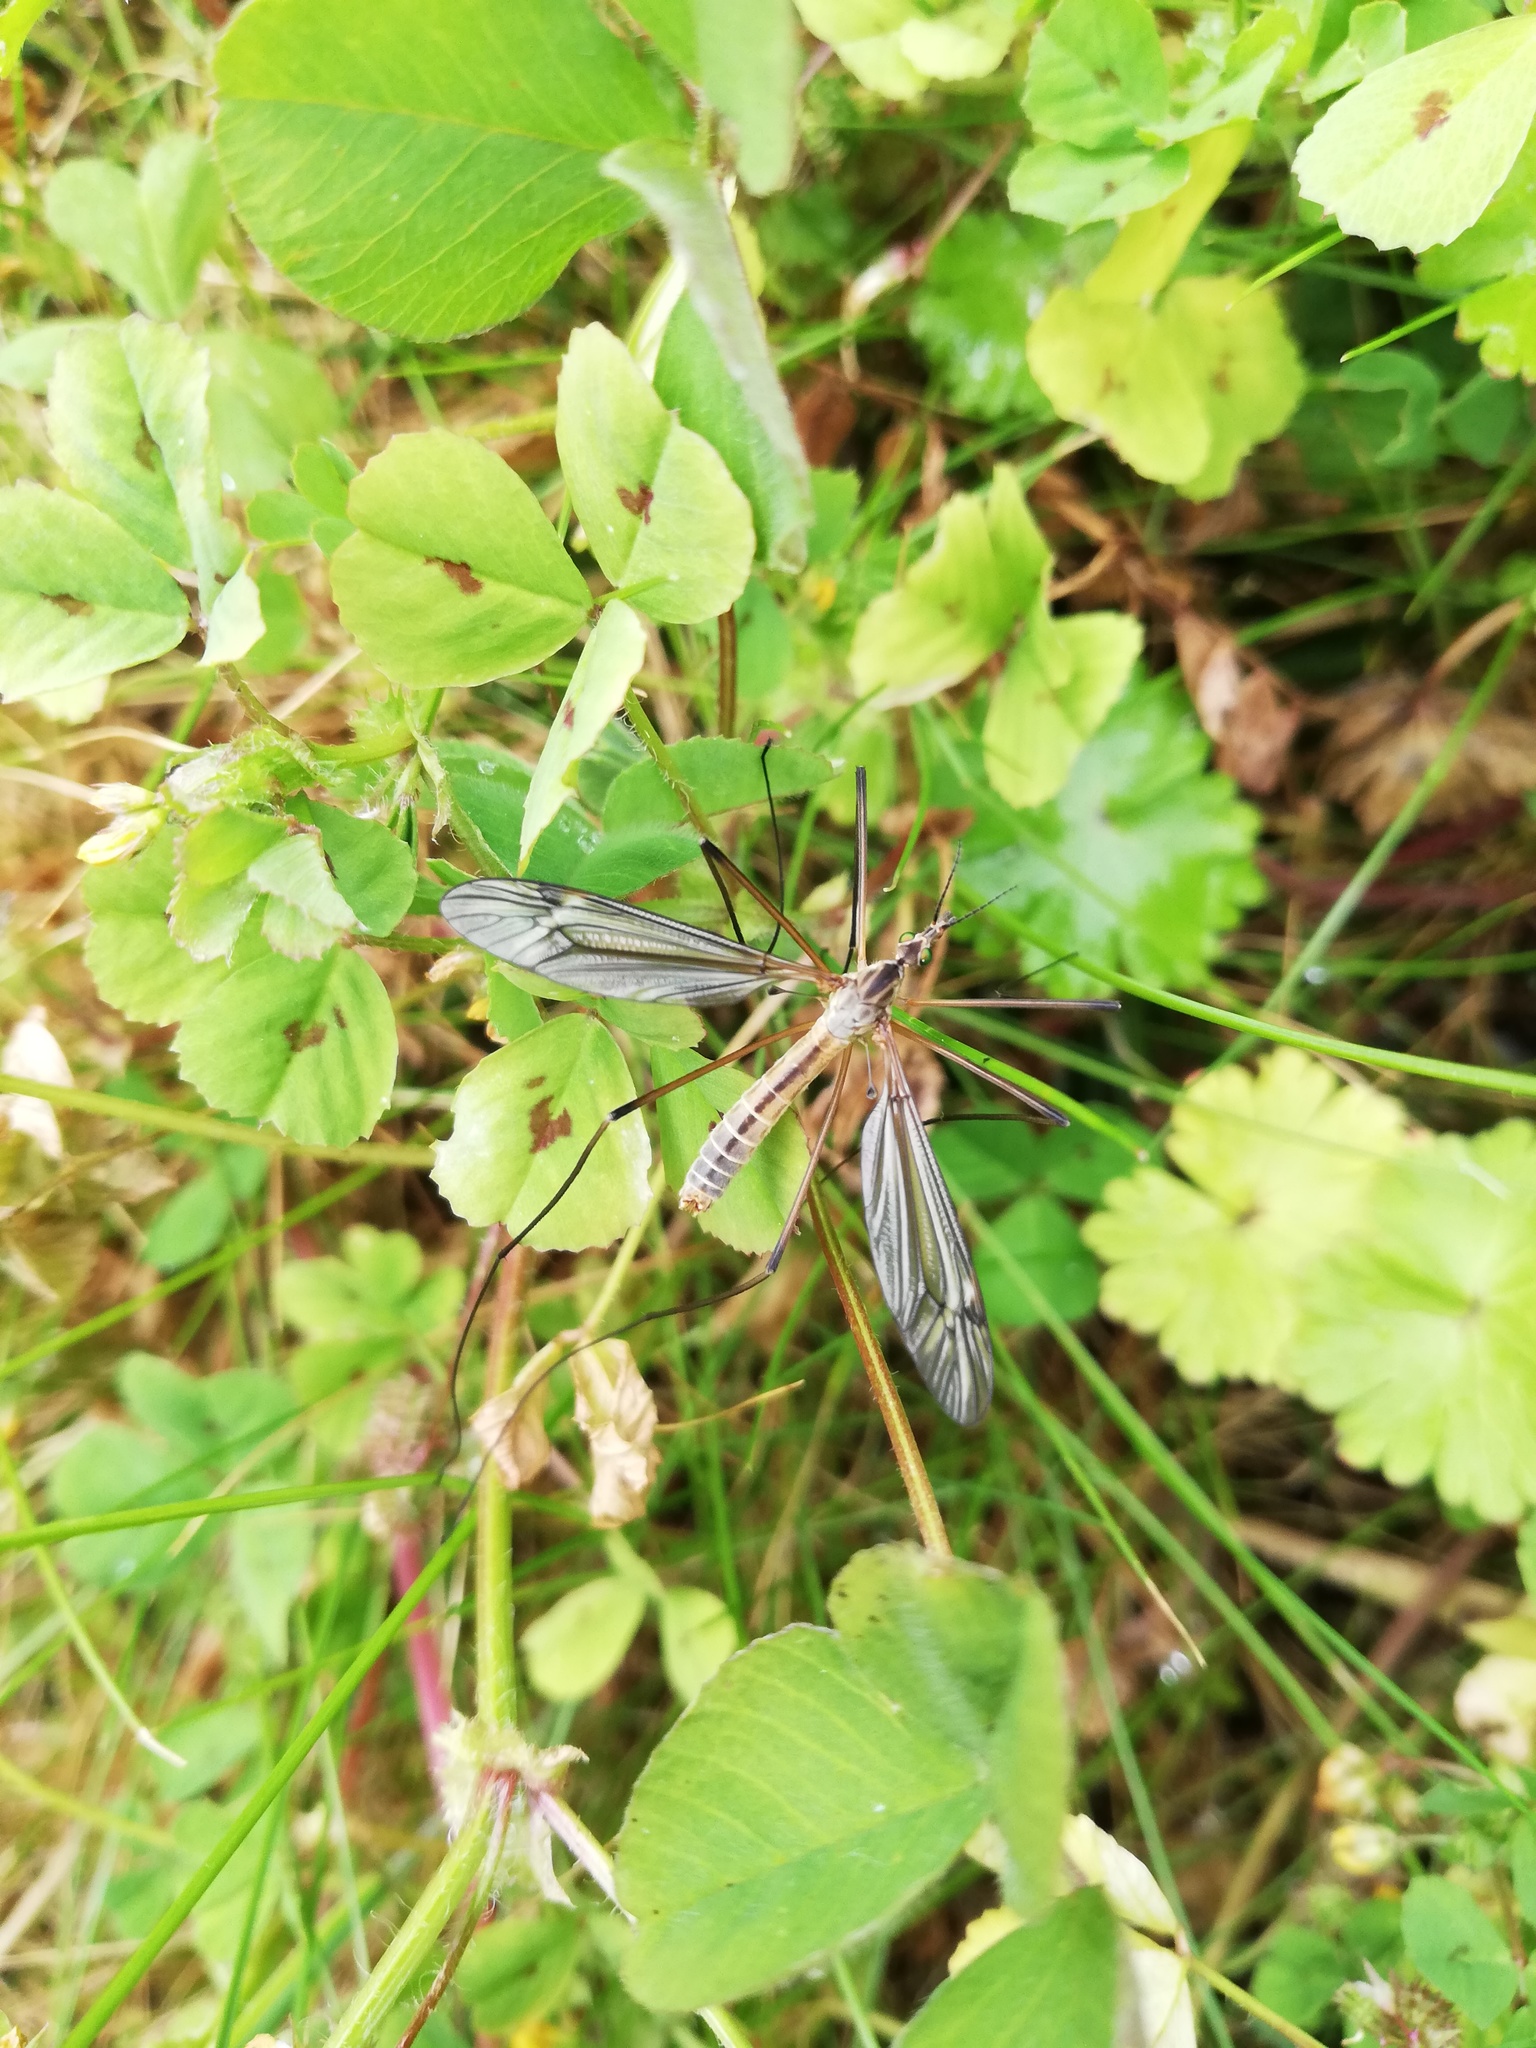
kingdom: Animalia
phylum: Arthropoda
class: Insecta
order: Diptera
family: Tipulidae
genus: Tipula
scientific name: Tipula vernalis
